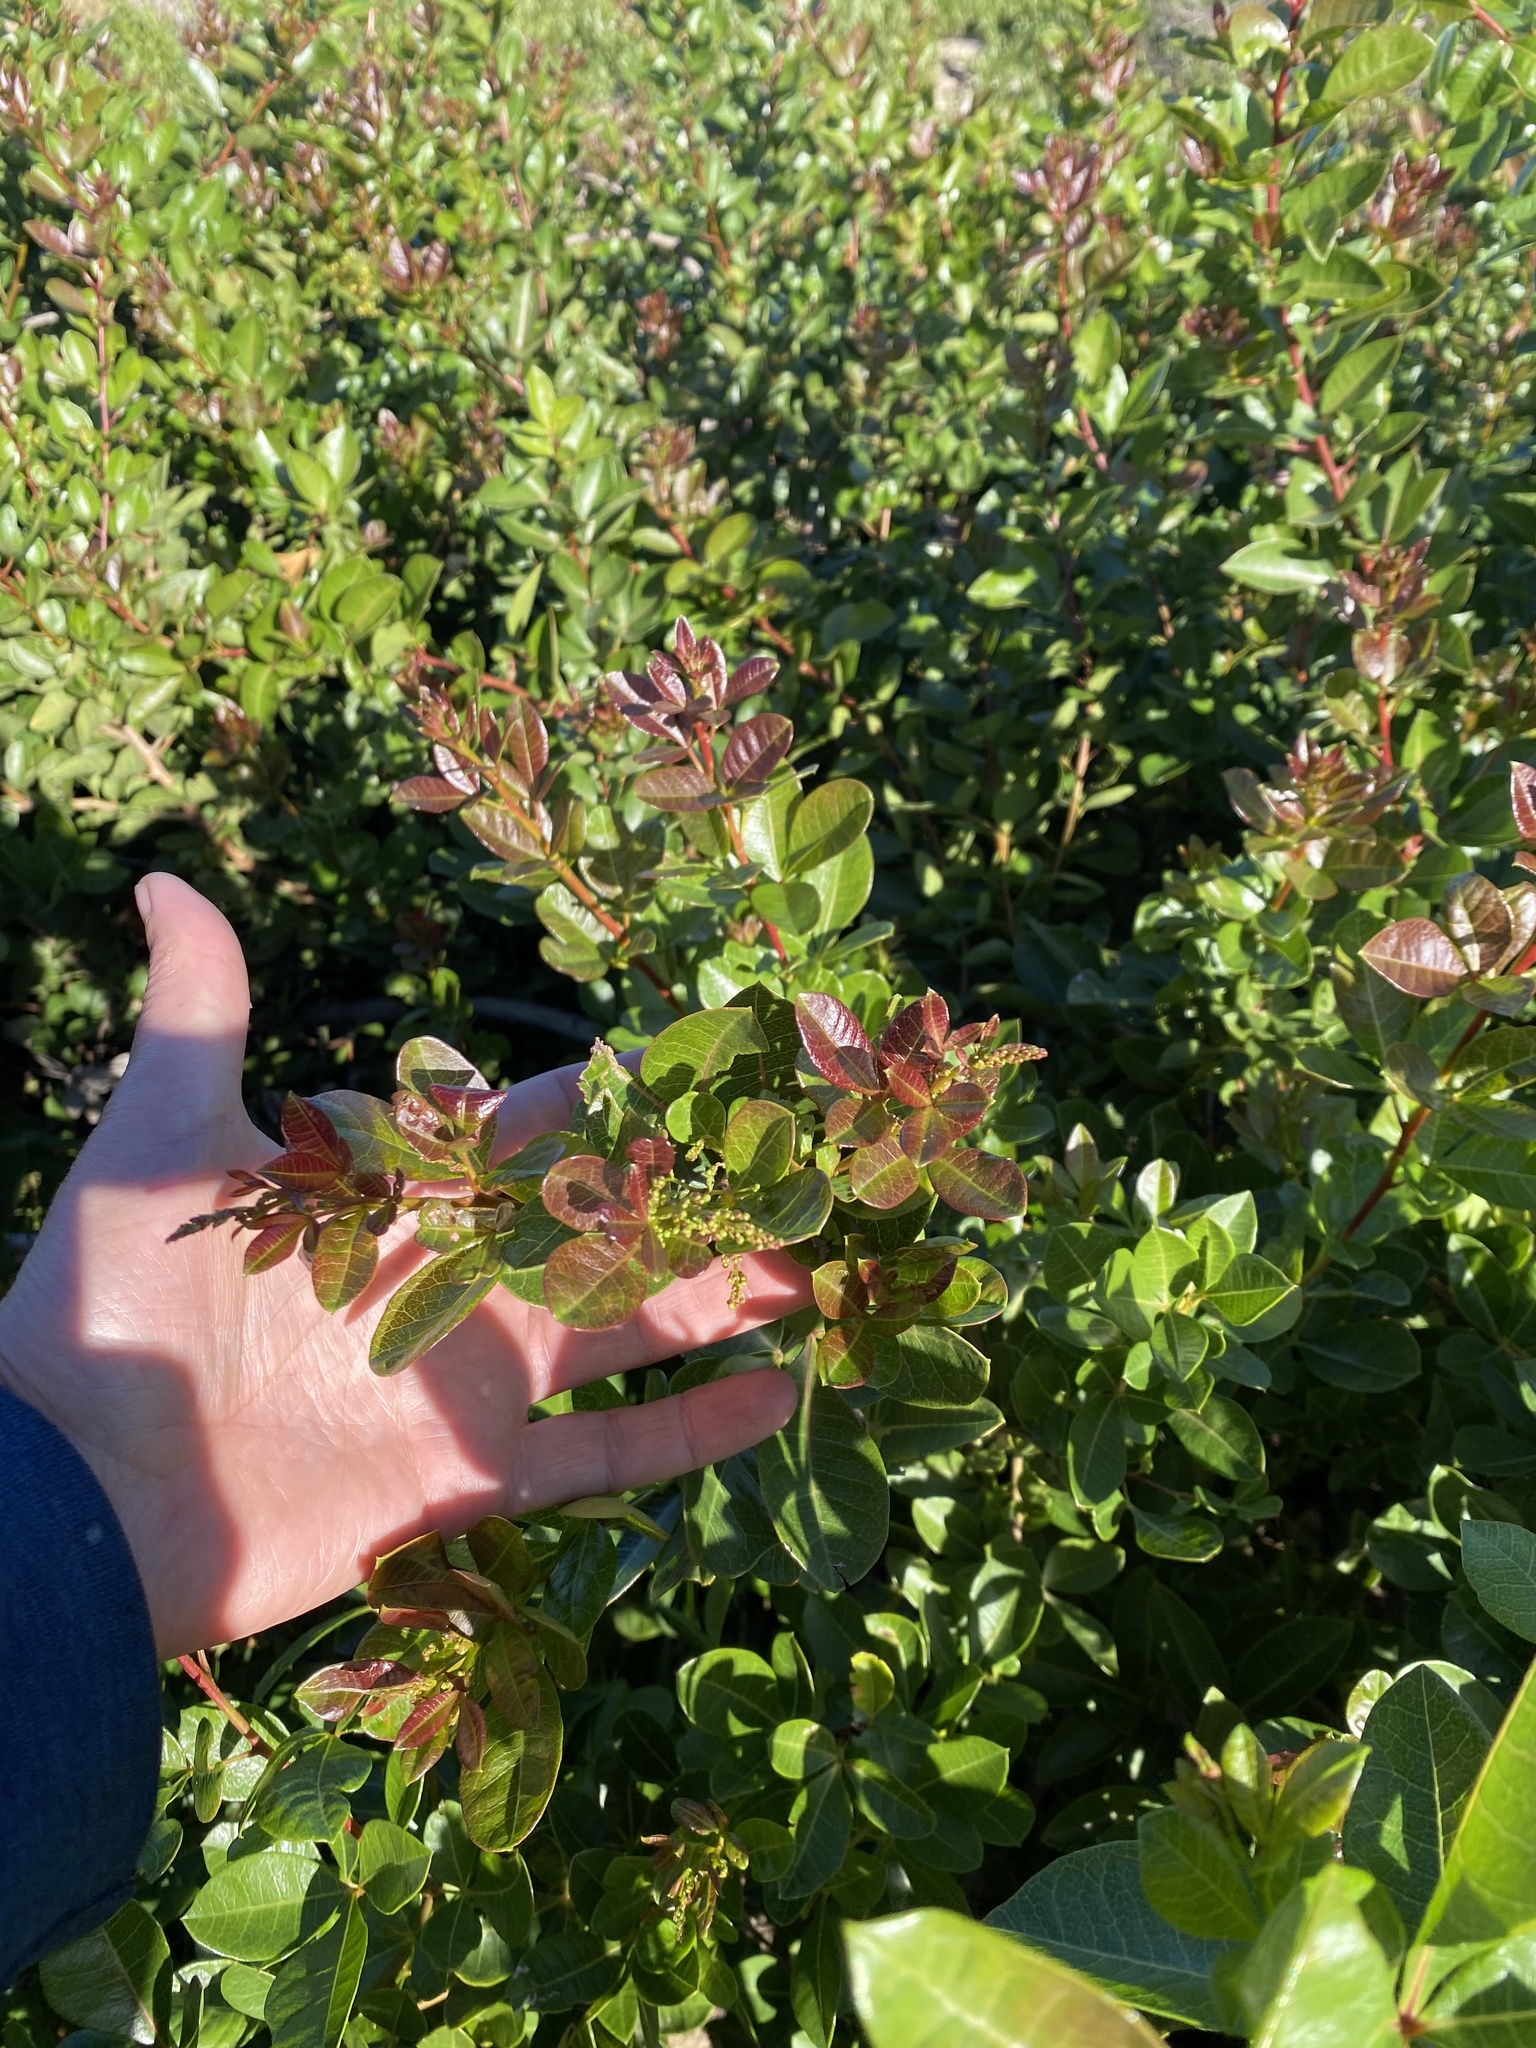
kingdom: Plantae
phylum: Tracheophyta
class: Magnoliopsida
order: Sapindales
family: Anacardiaceae
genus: Searsia
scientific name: Searsia laevigata
